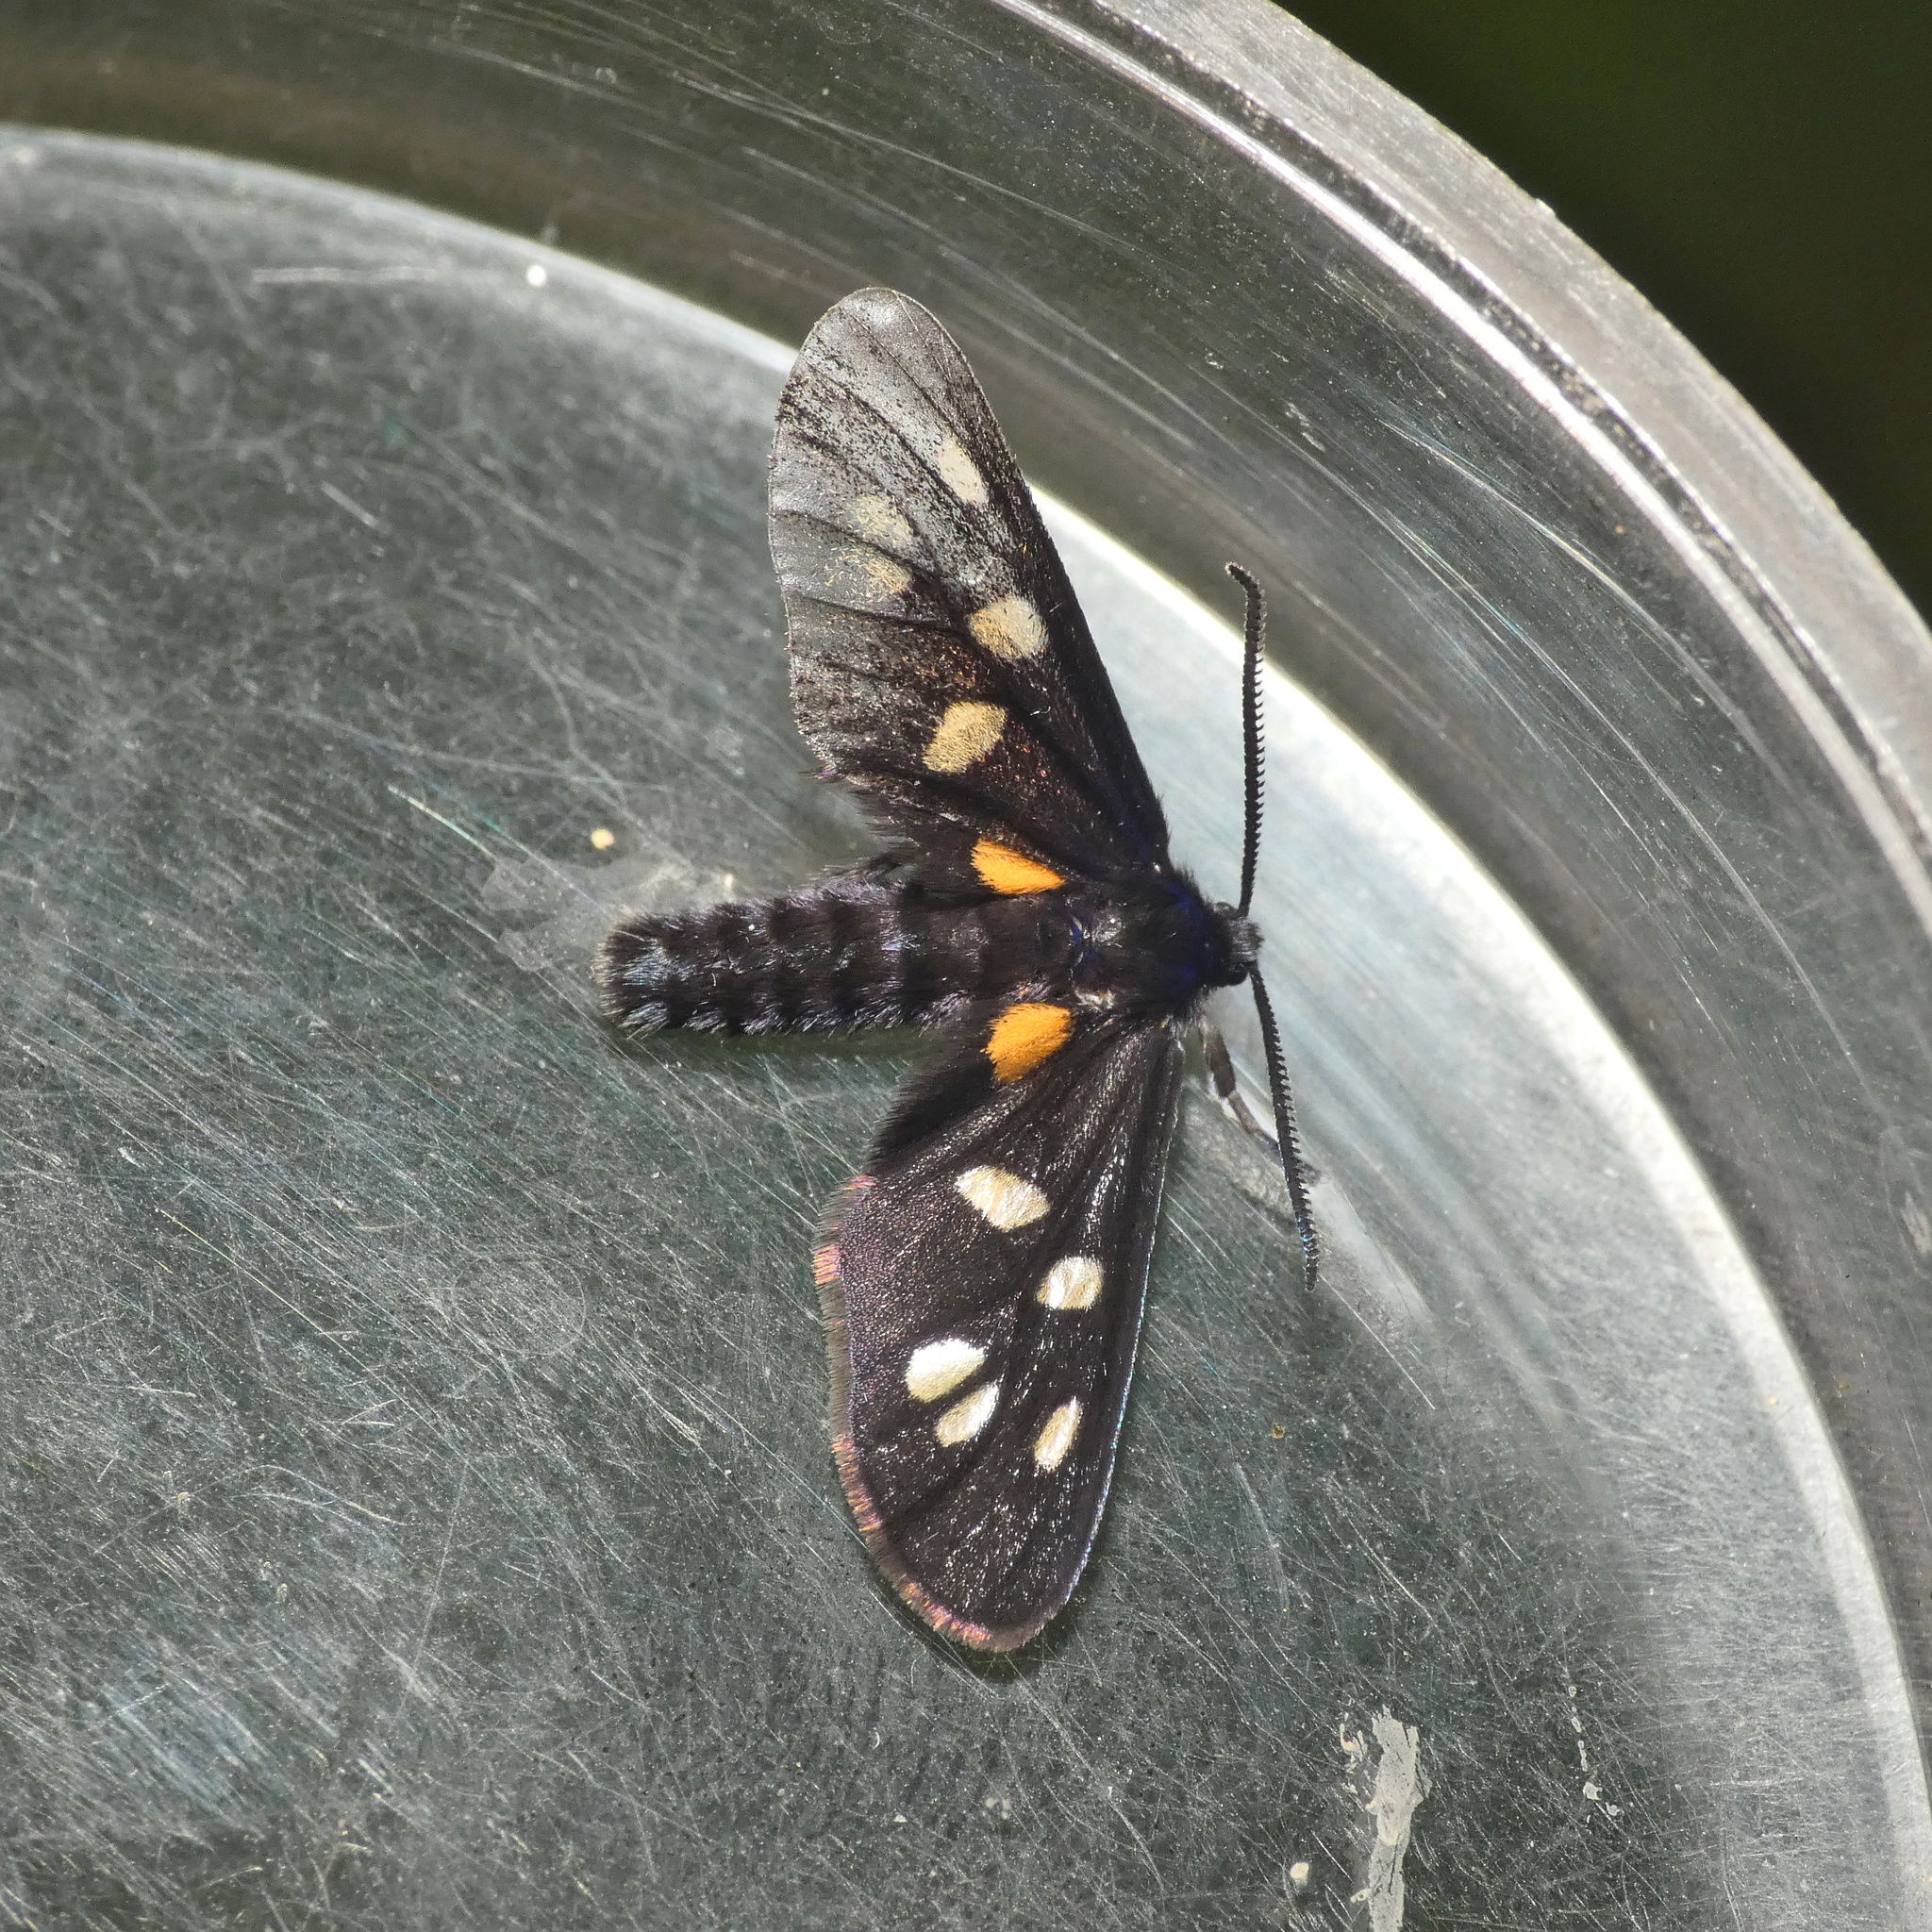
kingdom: Animalia
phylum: Arthropoda
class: Insecta
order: Lepidoptera
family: Erebidae
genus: Amata
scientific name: Amata Asinusca atricornis
